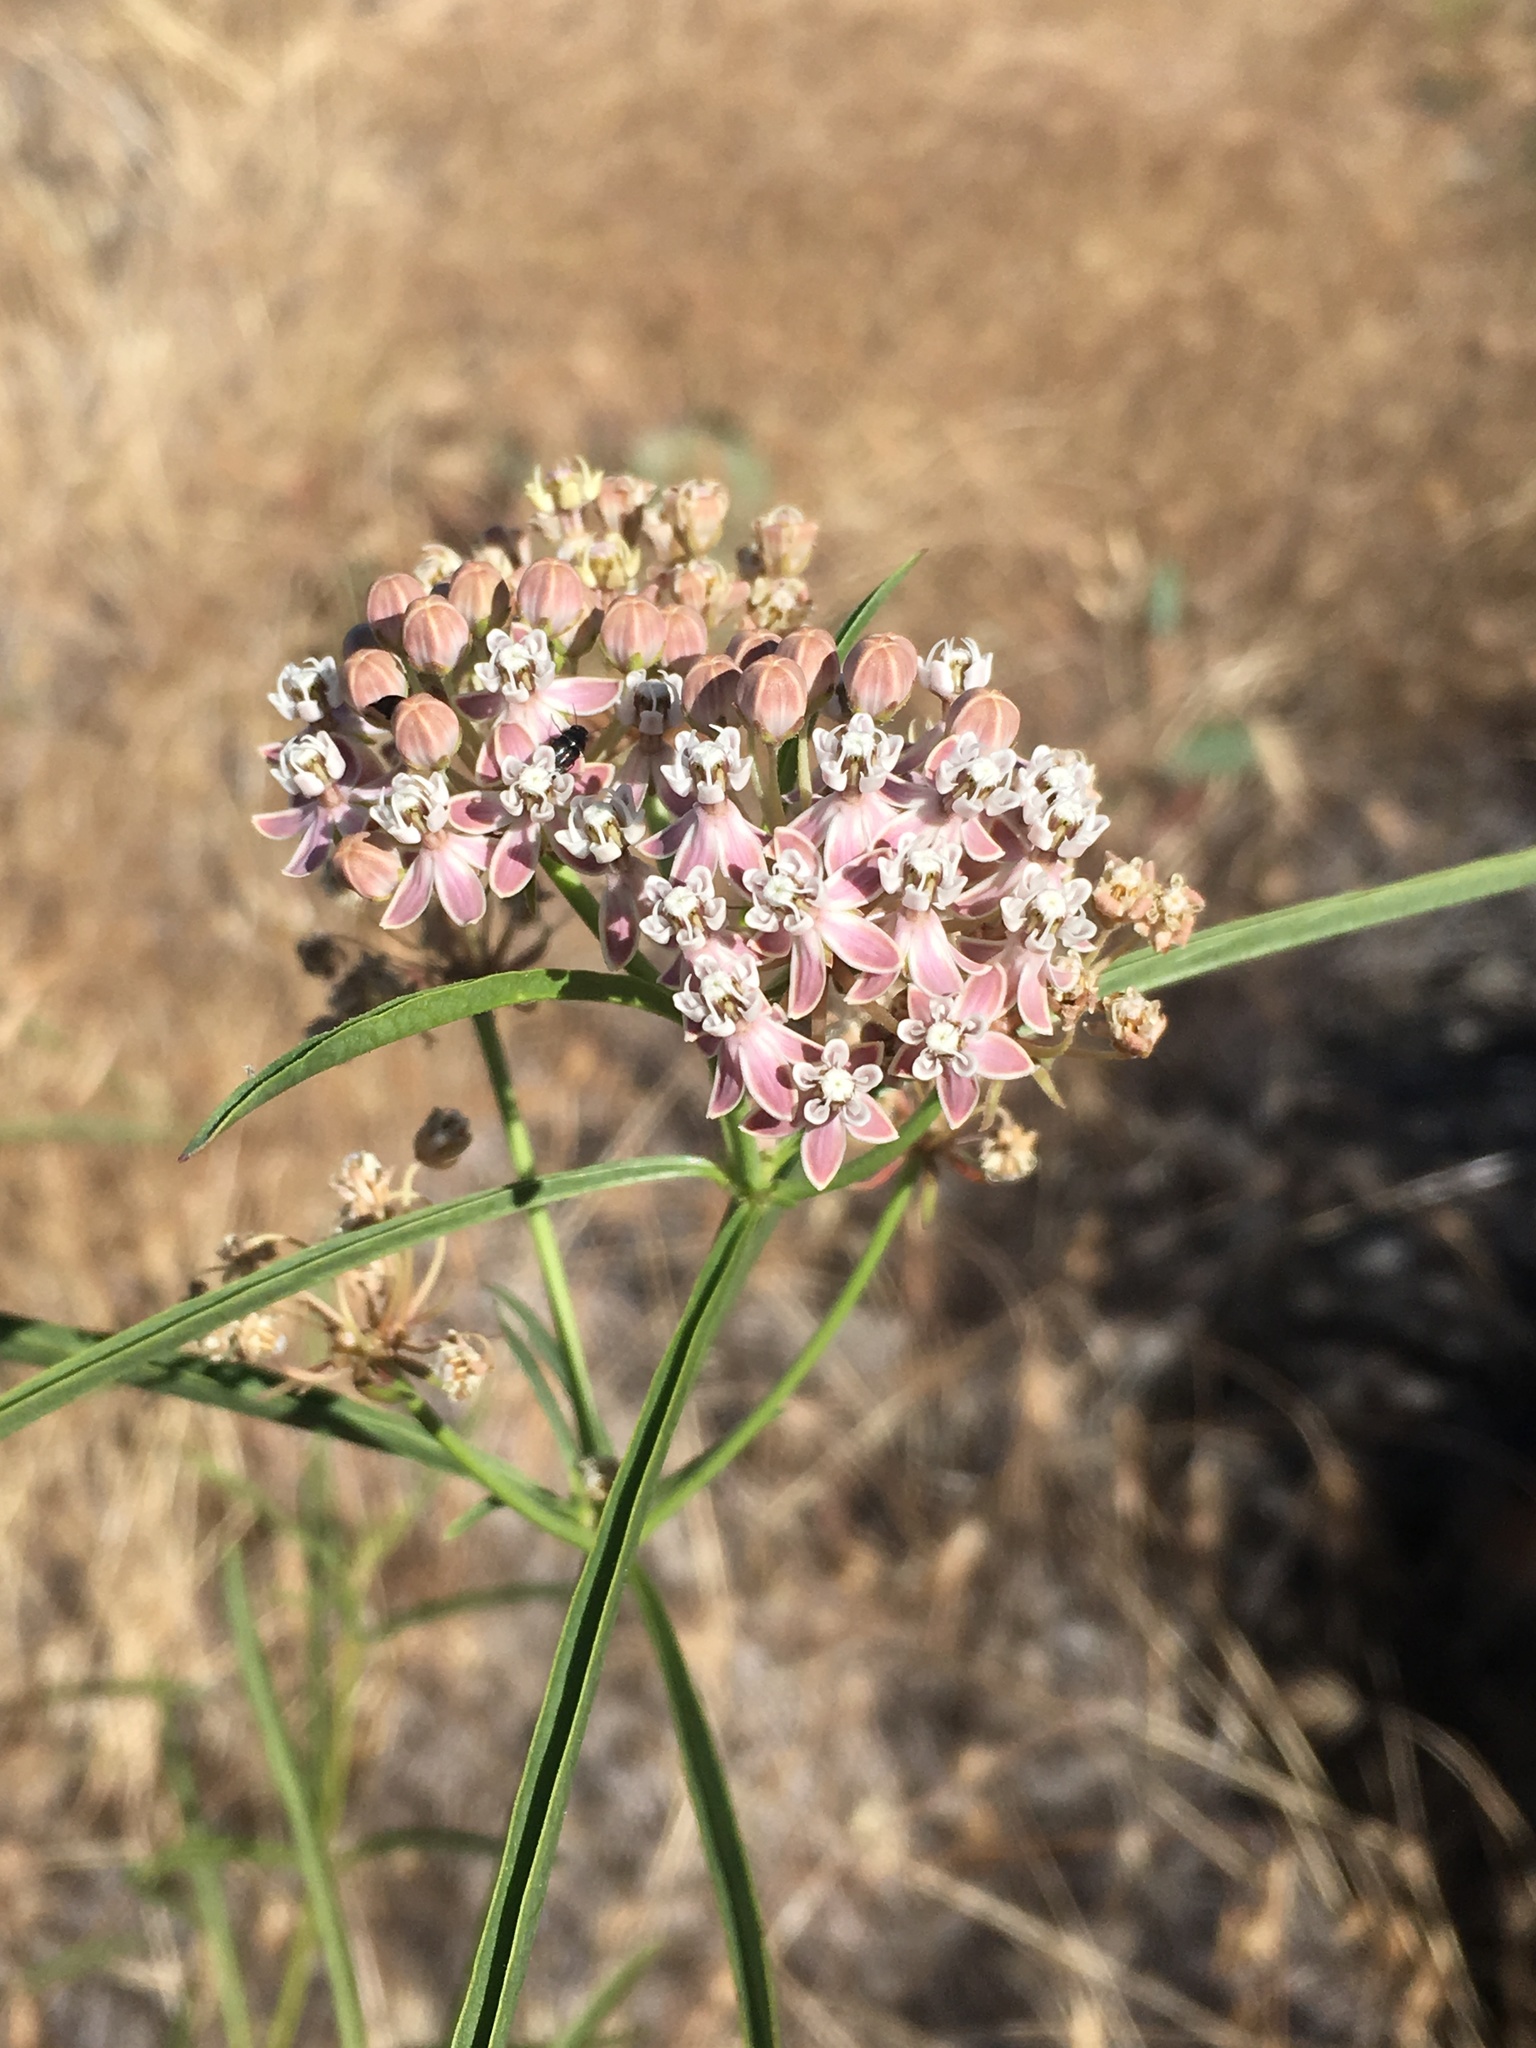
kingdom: Plantae
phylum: Tracheophyta
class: Magnoliopsida
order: Gentianales
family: Apocynaceae
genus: Asclepias
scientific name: Asclepias fascicularis
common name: Mexican milkweed
